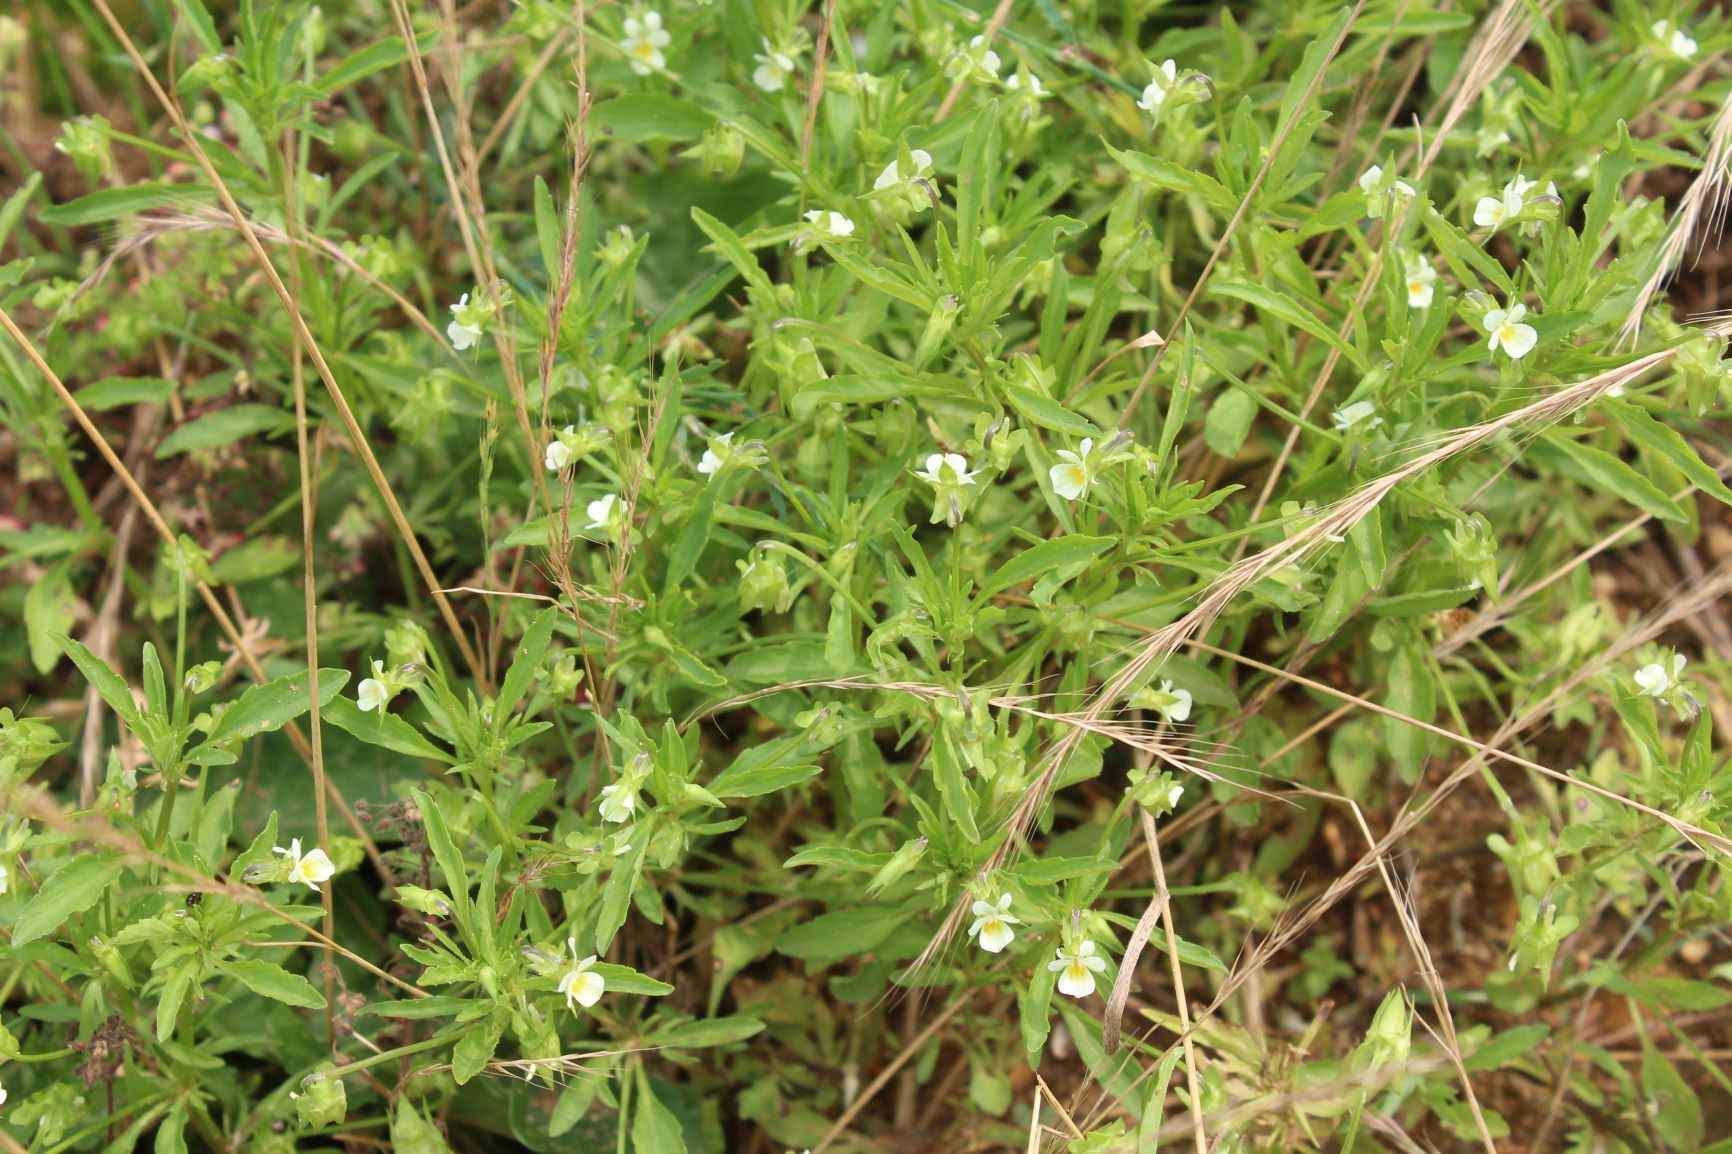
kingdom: Plantae
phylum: Tracheophyta
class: Magnoliopsida
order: Malpighiales
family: Violaceae
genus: Viola
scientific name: Viola arvensis
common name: Field pansy
